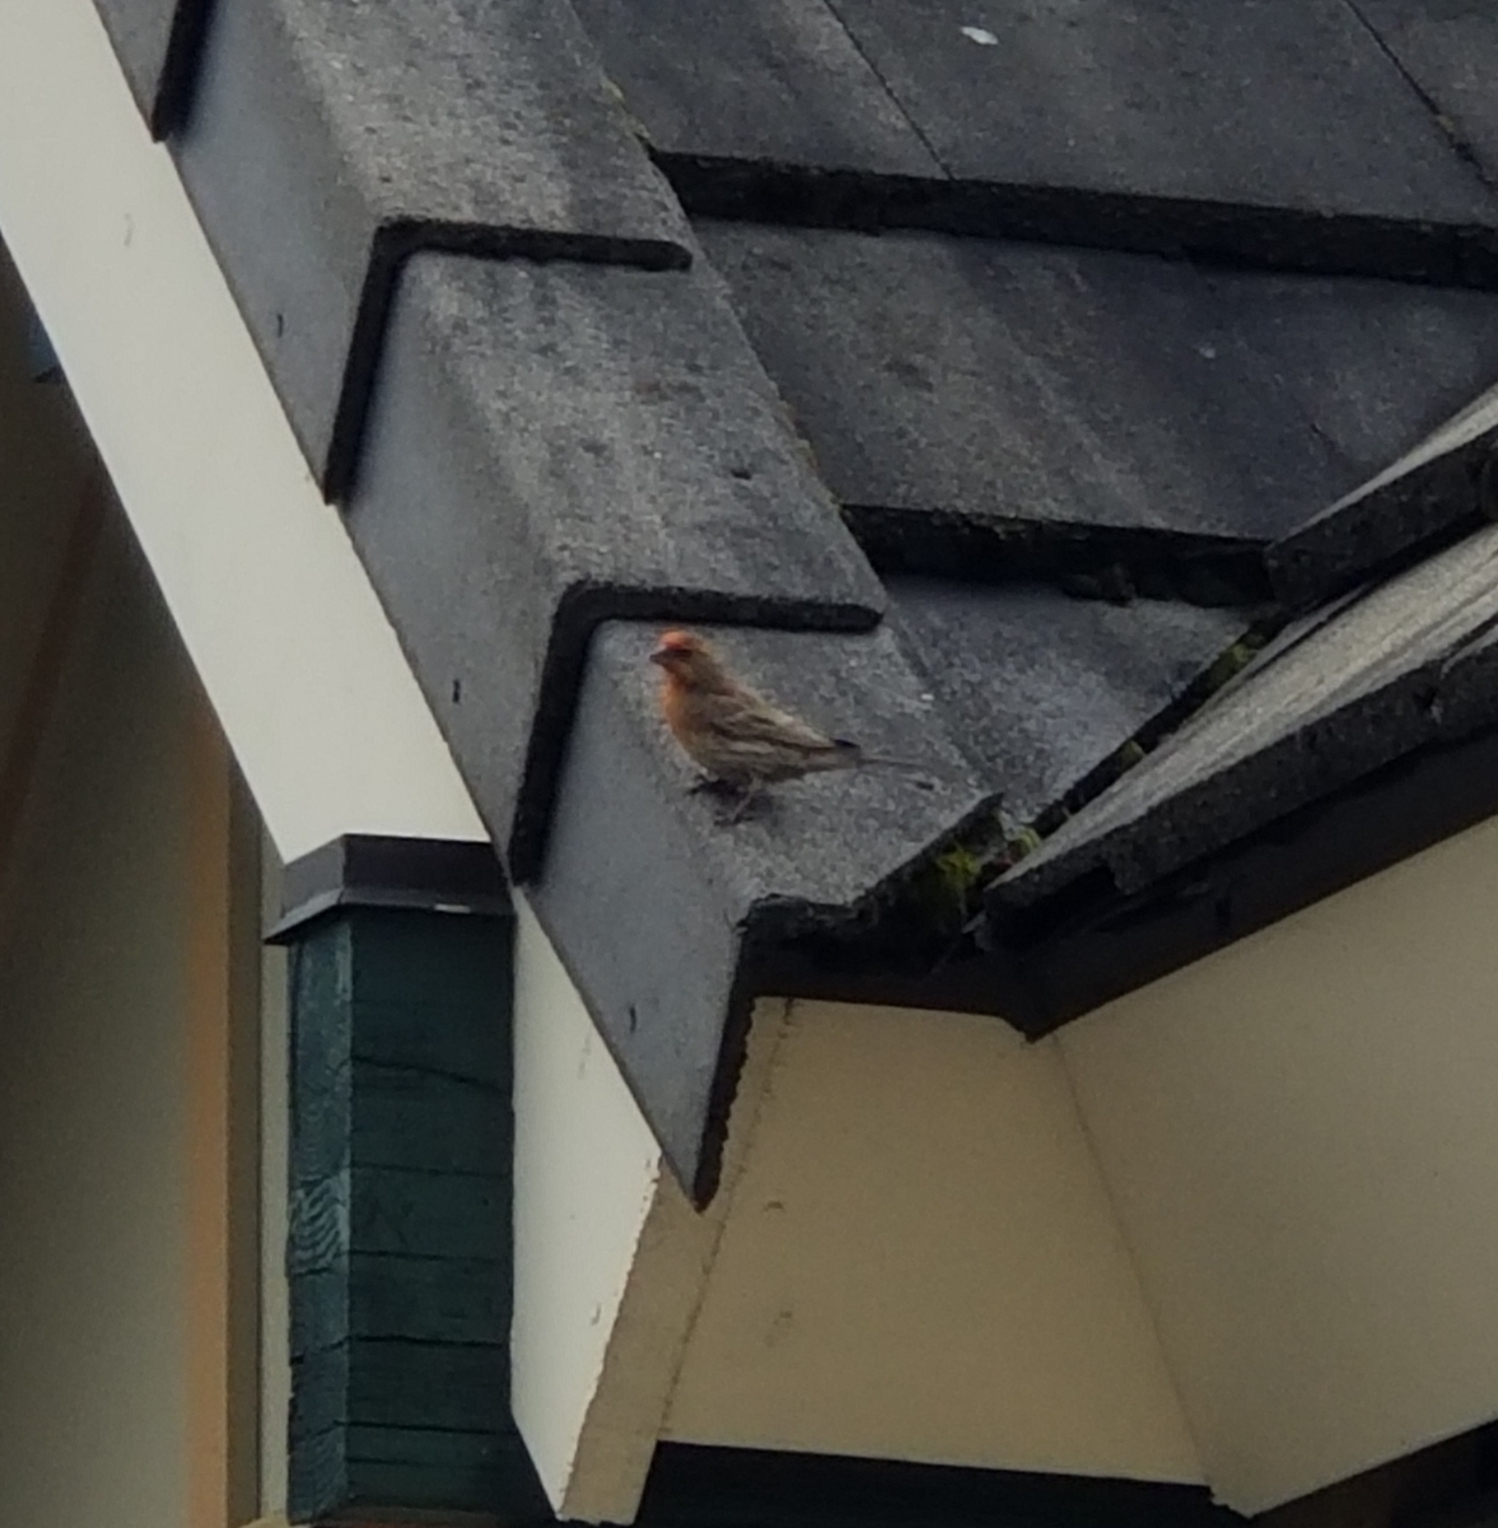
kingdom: Animalia
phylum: Chordata
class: Aves
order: Passeriformes
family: Fringillidae
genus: Haemorhous
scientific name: Haemorhous mexicanus
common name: House finch
